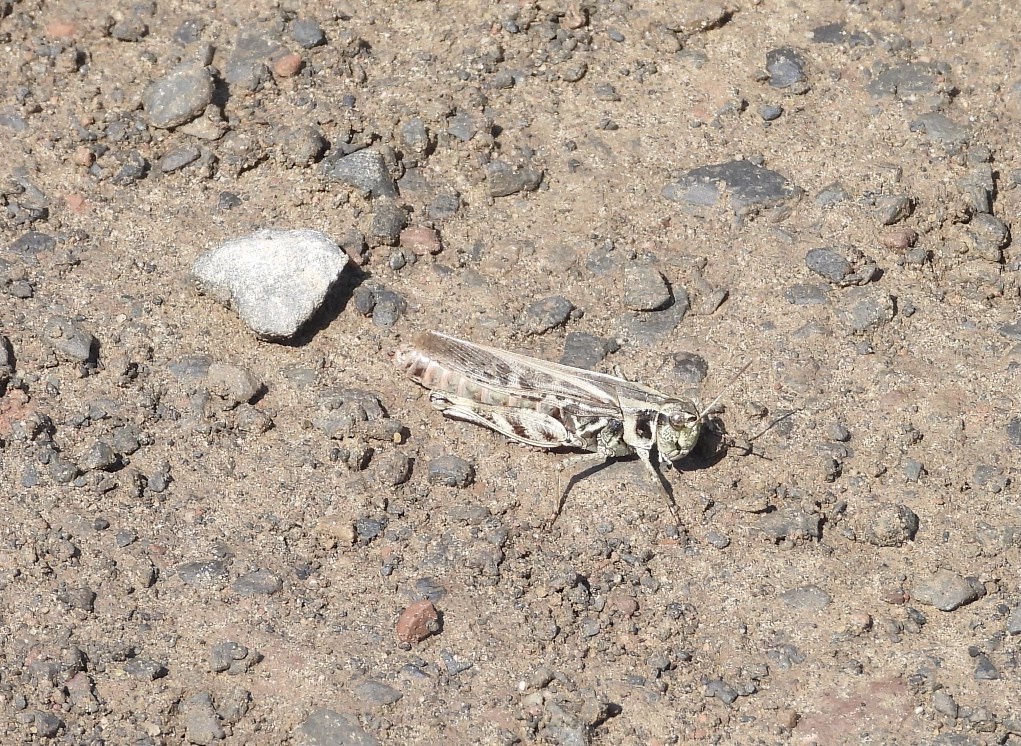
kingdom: Animalia
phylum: Arthropoda
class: Insecta
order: Orthoptera
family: Acrididae
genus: Camnula
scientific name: Camnula pellucida
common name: Clear-winged grasshopper
